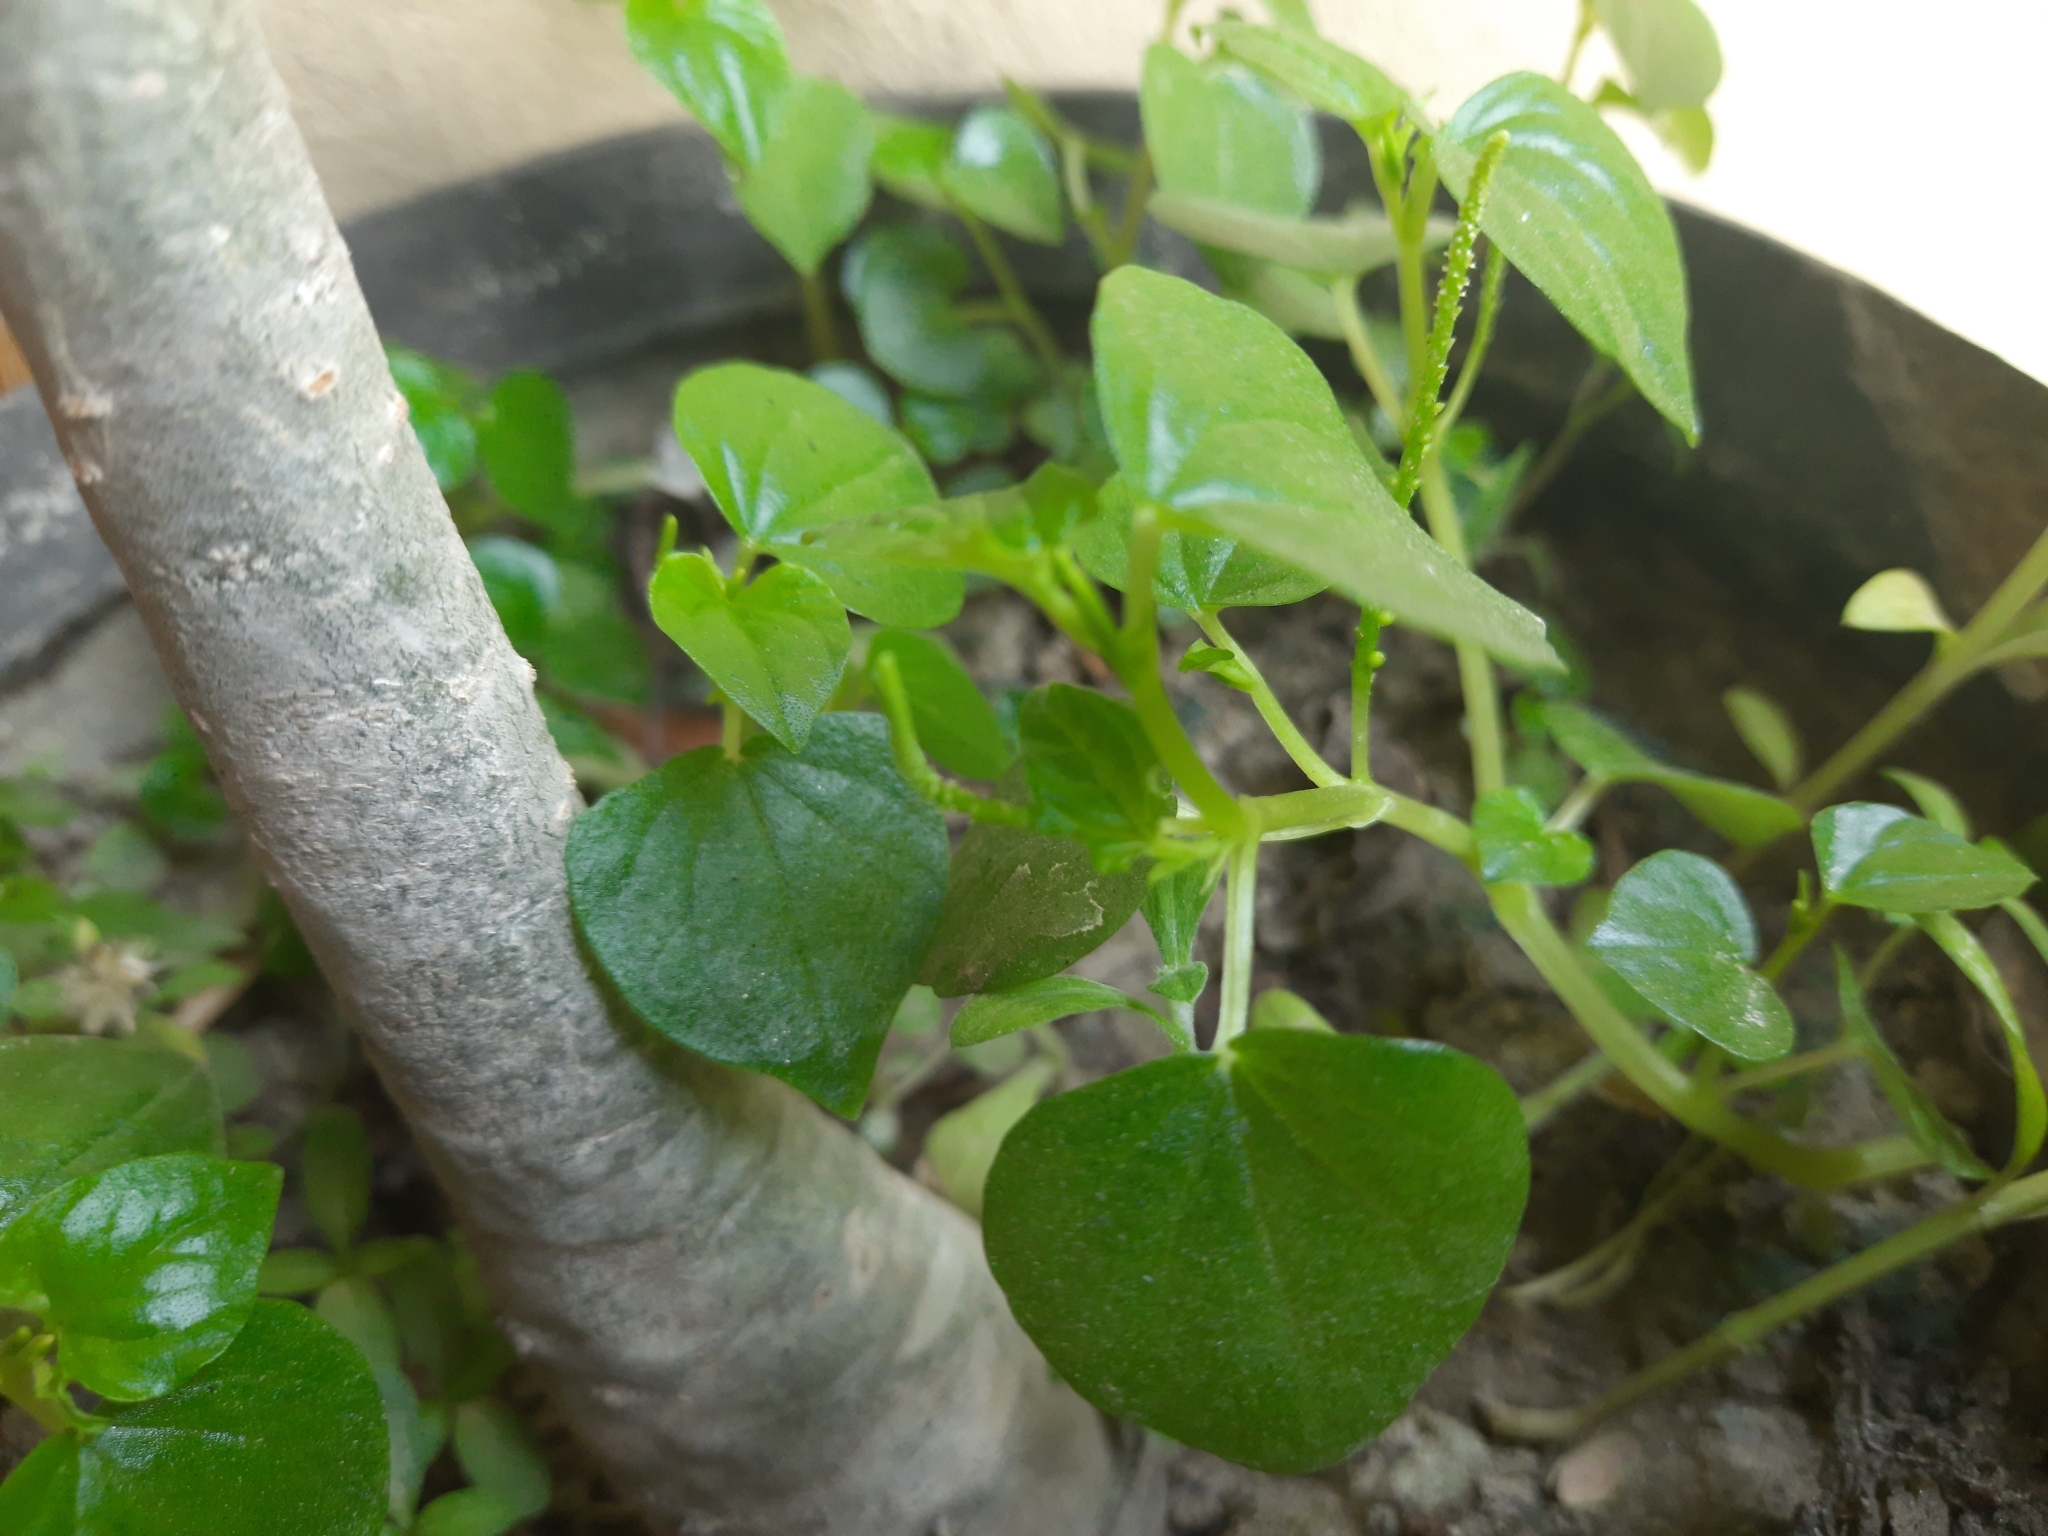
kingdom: Plantae
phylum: Tracheophyta
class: Magnoliopsida
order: Piperales
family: Piperaceae
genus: Peperomia
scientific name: Peperomia pellucida
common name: Man to man
